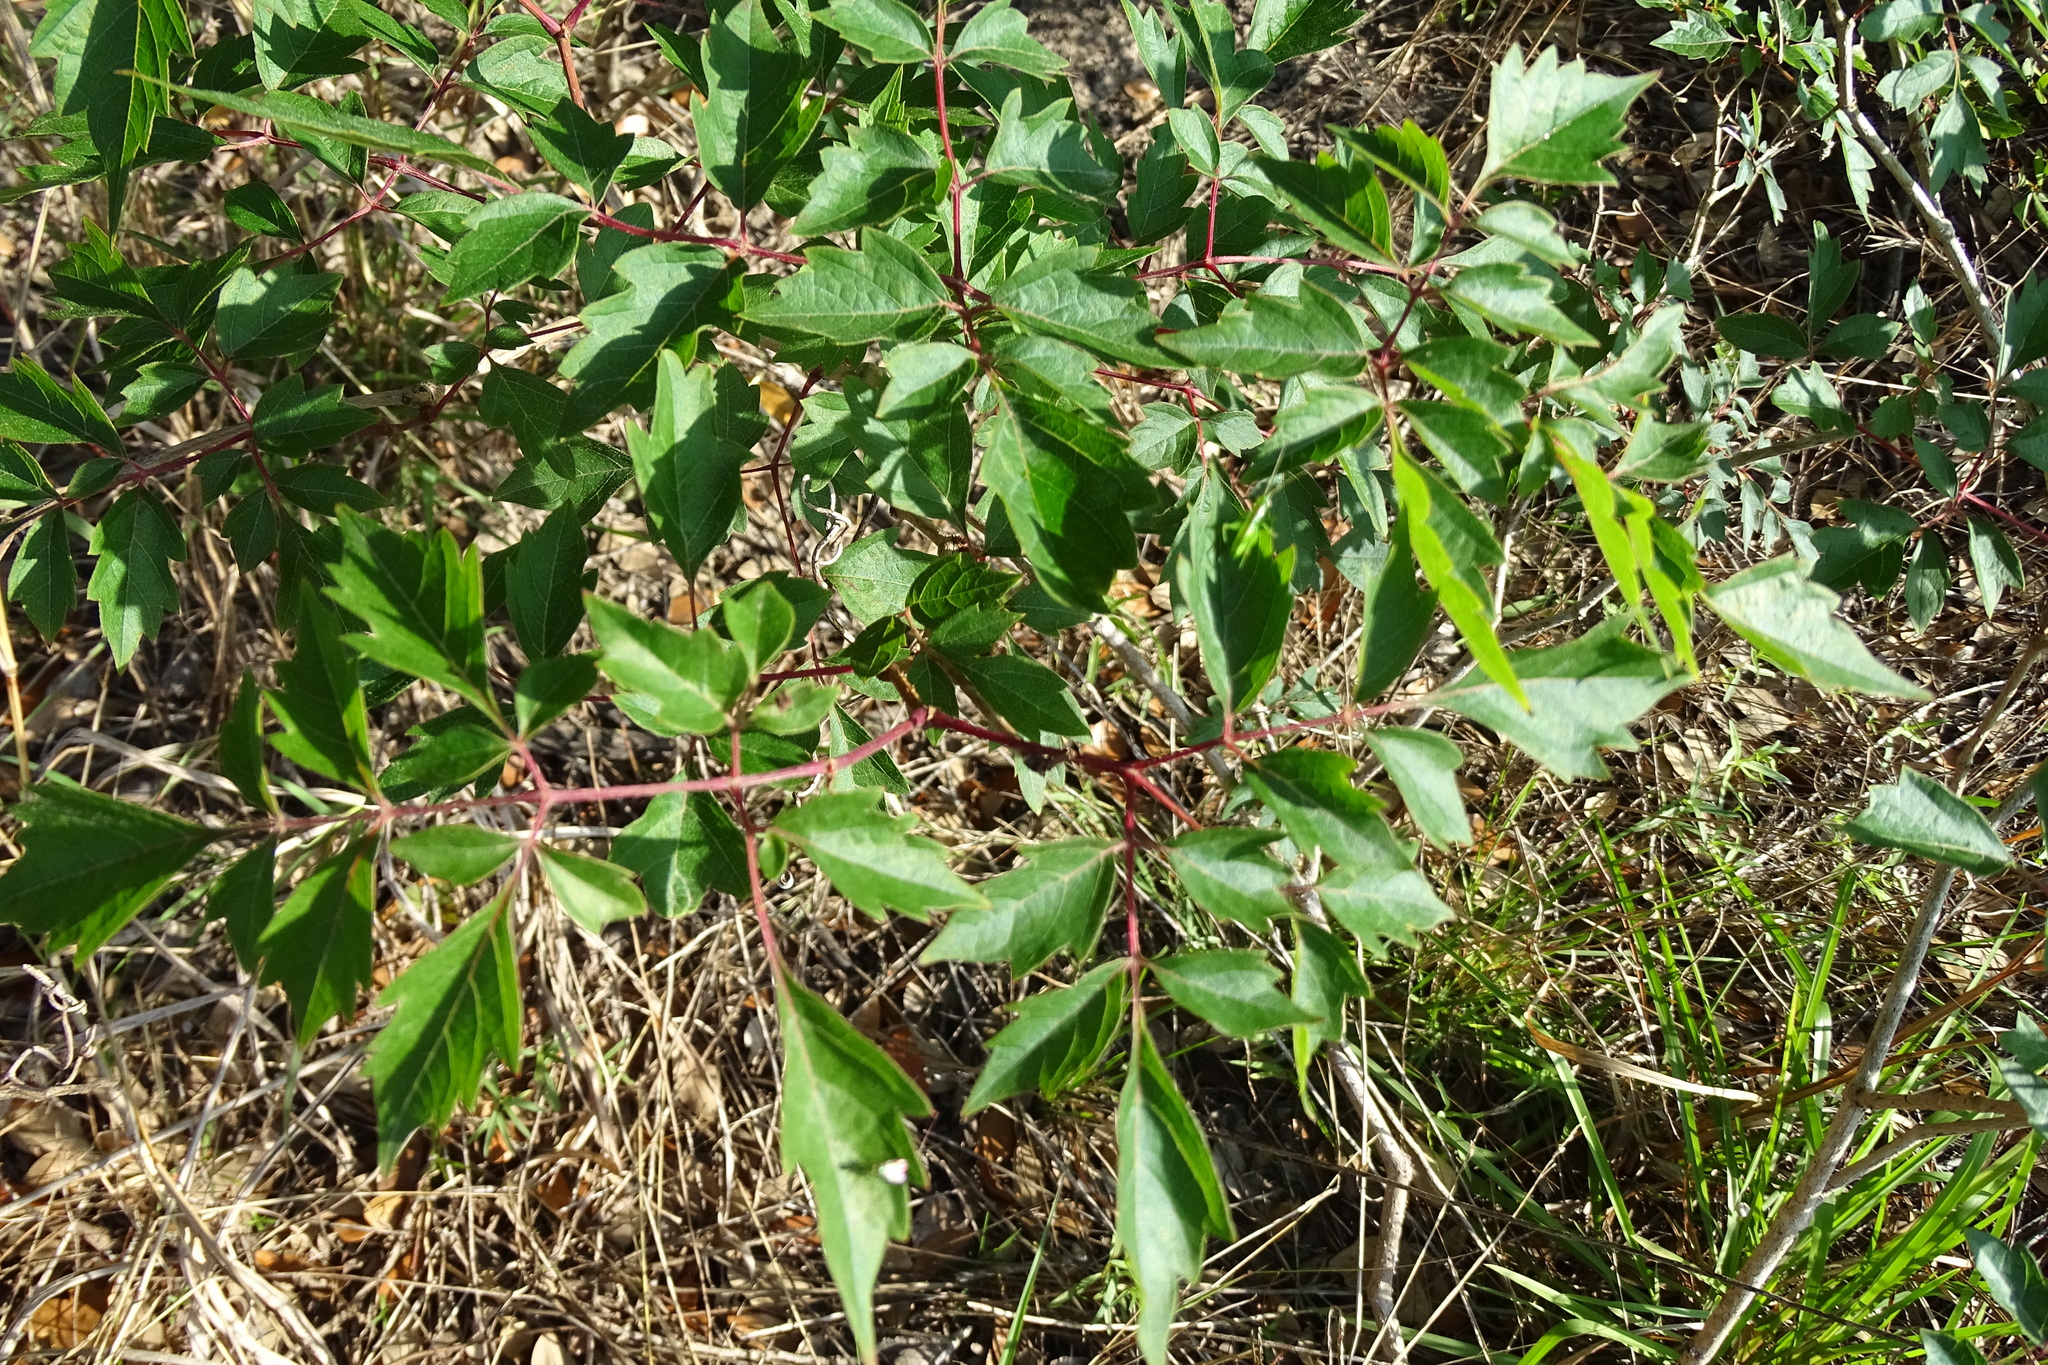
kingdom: Plantae
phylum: Tracheophyta
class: Magnoliopsida
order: Vitales
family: Vitaceae
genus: Nekemias
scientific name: Nekemias arborea
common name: Peppervine
